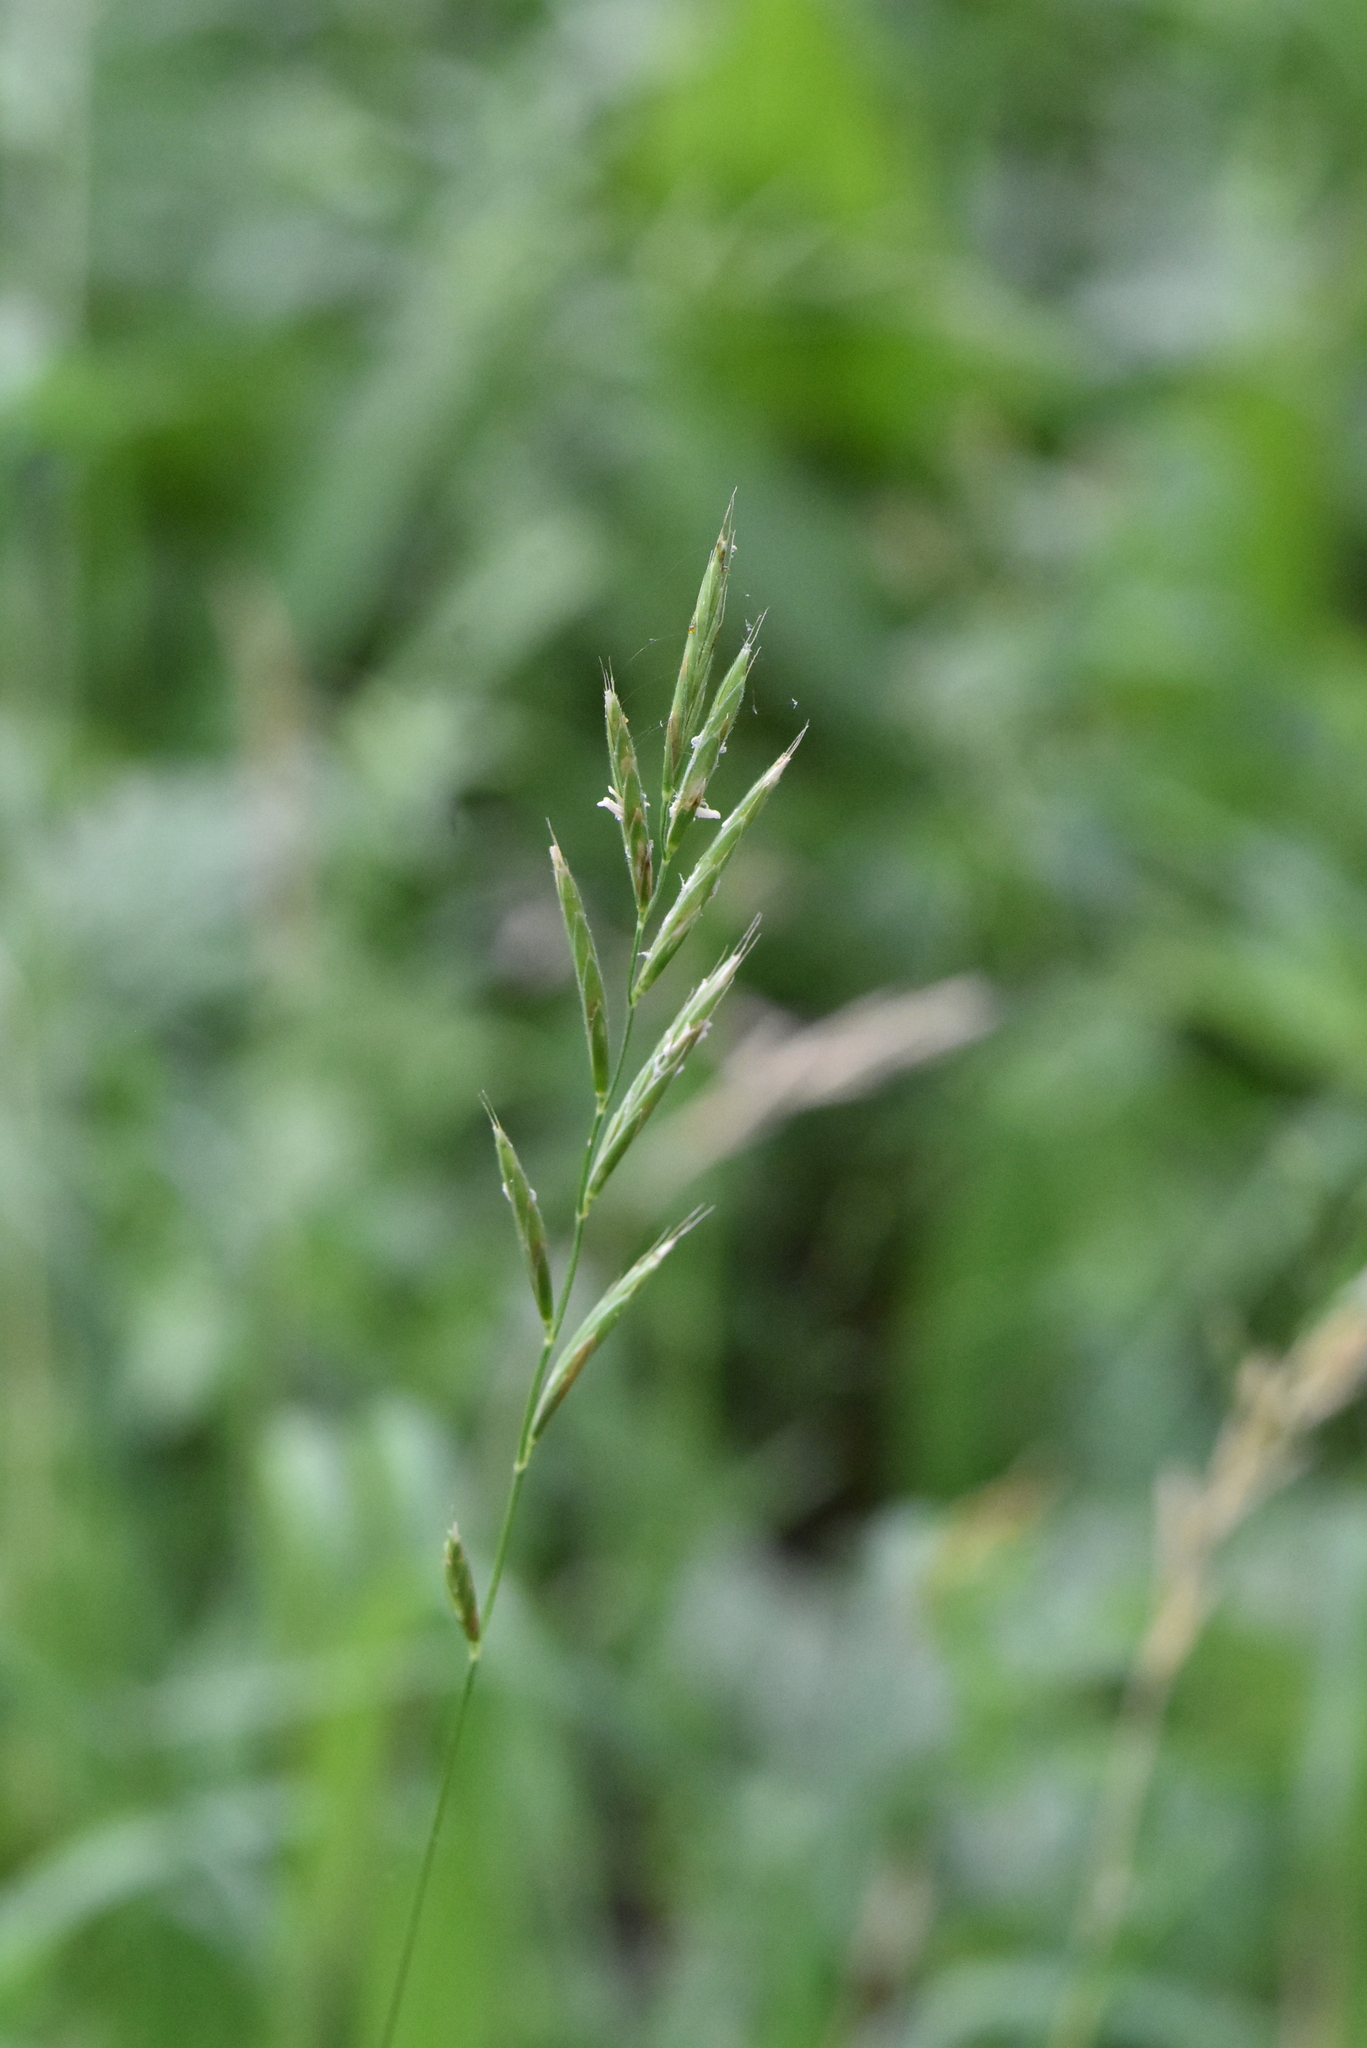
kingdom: Plantae
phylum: Tracheophyta
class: Liliopsida
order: Poales
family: Poaceae
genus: Brachypodium
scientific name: Brachypodium pinnatum
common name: Tor grass
